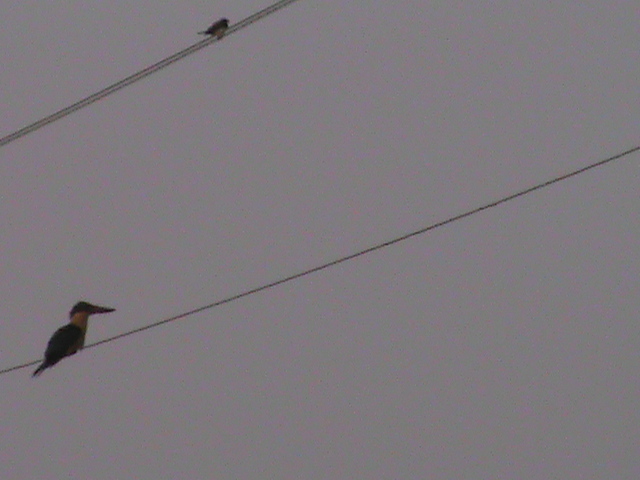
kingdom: Animalia
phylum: Chordata
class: Aves
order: Passeriformes
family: Estrildidae
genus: Lonchura
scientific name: Lonchura striata
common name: White-rumped munia
